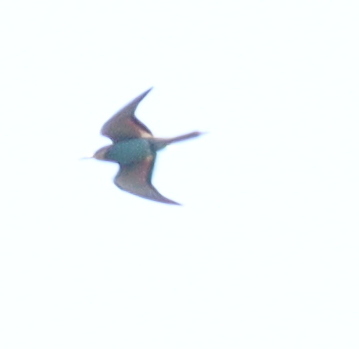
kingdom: Animalia
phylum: Chordata
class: Aves
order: Coraciiformes
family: Meropidae
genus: Merops
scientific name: Merops apiaster
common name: European bee-eater
